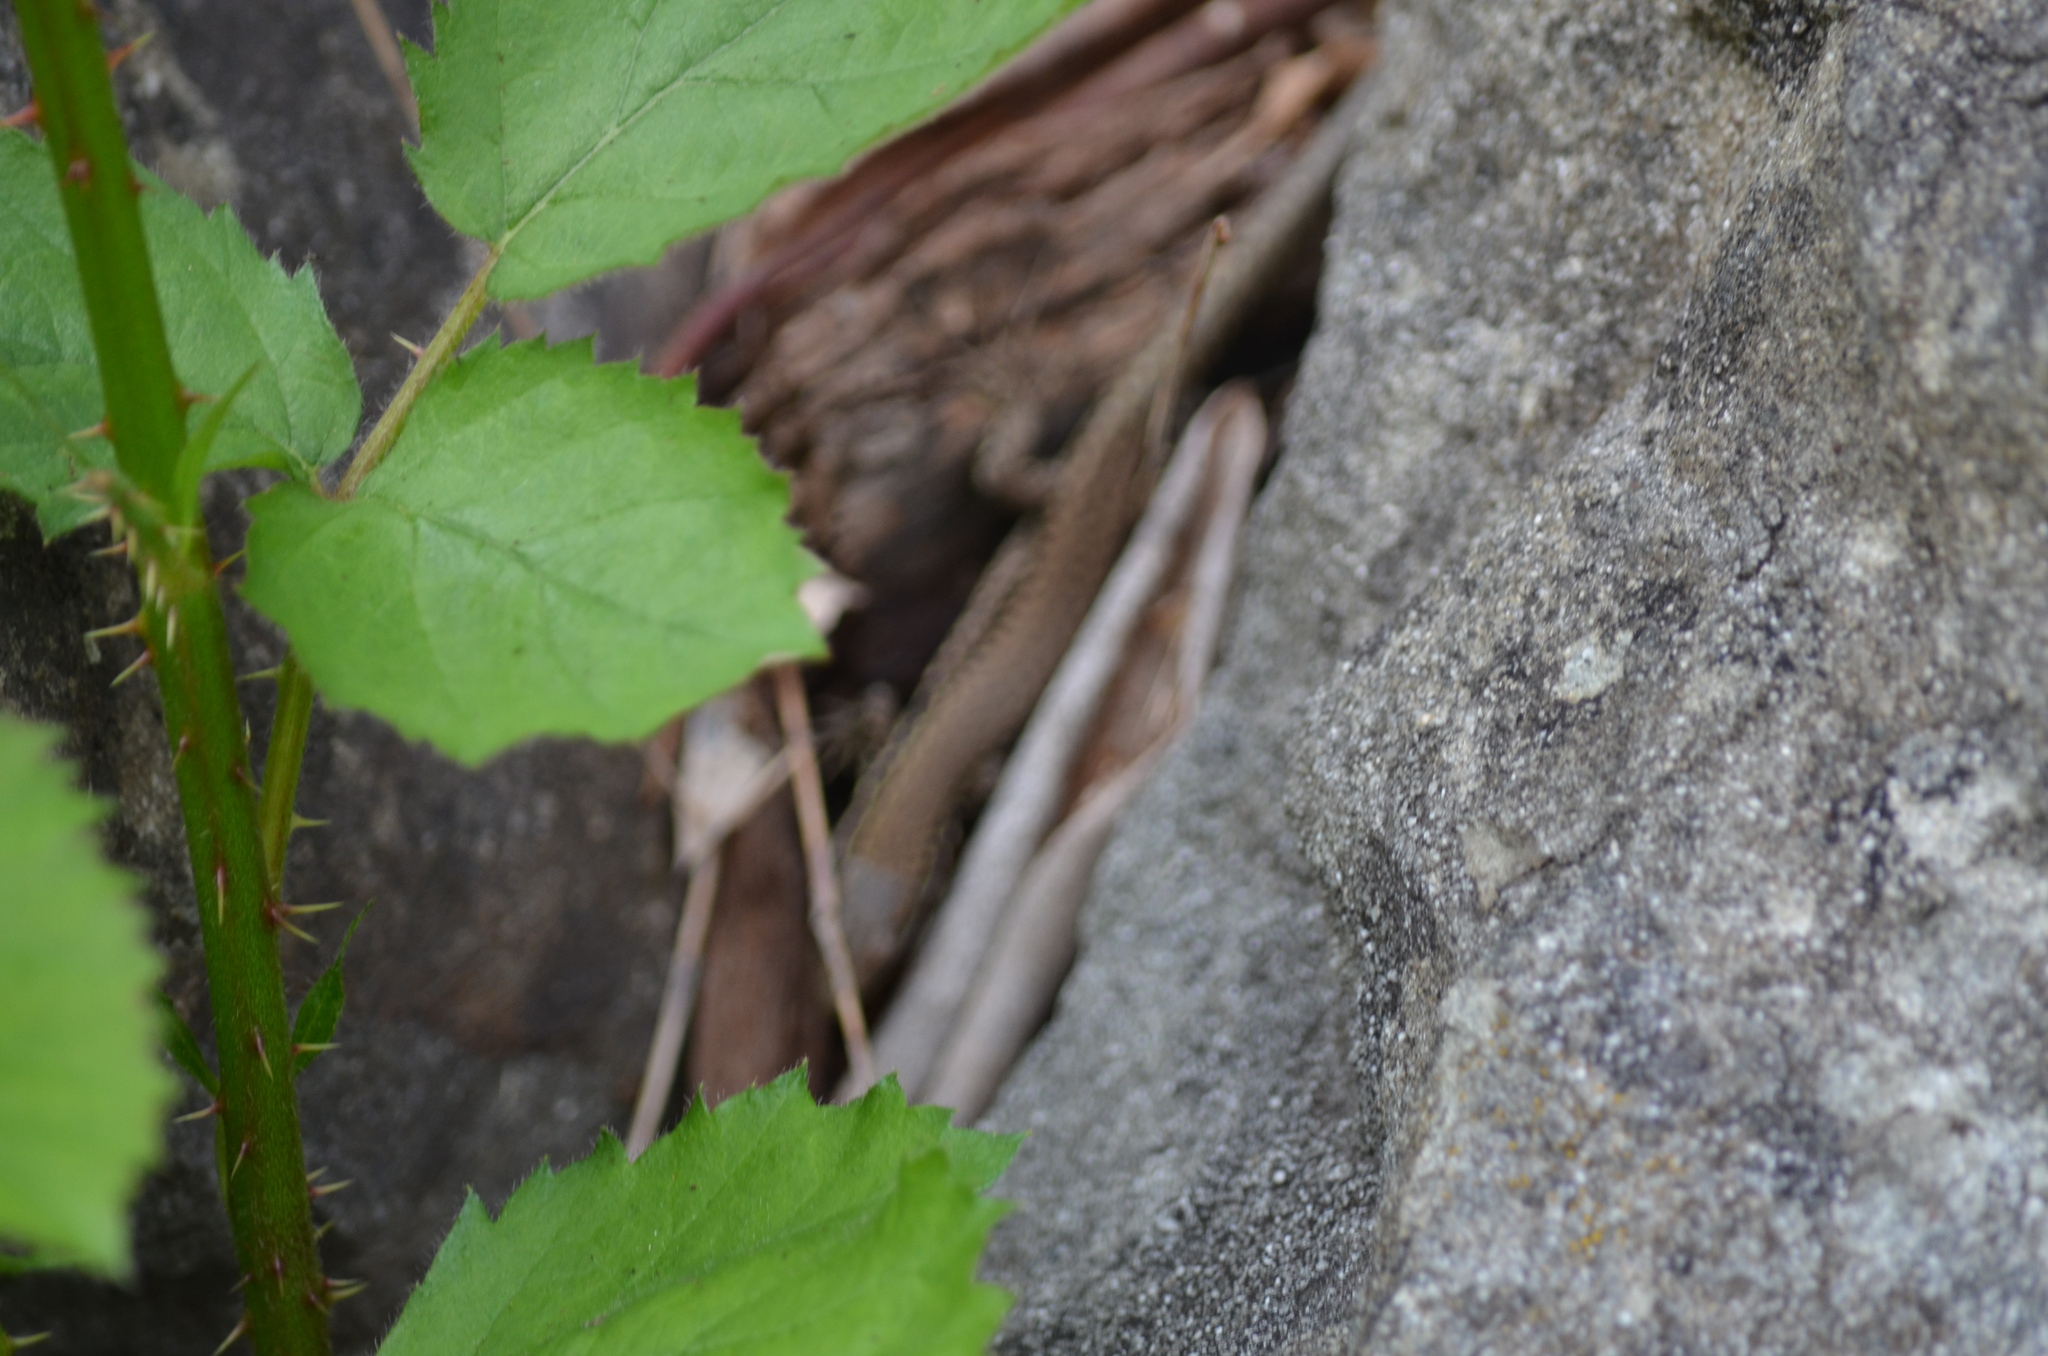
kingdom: Animalia
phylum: Chordata
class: Squamata
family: Lacertidae
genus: Podarcis
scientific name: Podarcis muralis
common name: Common wall lizard
